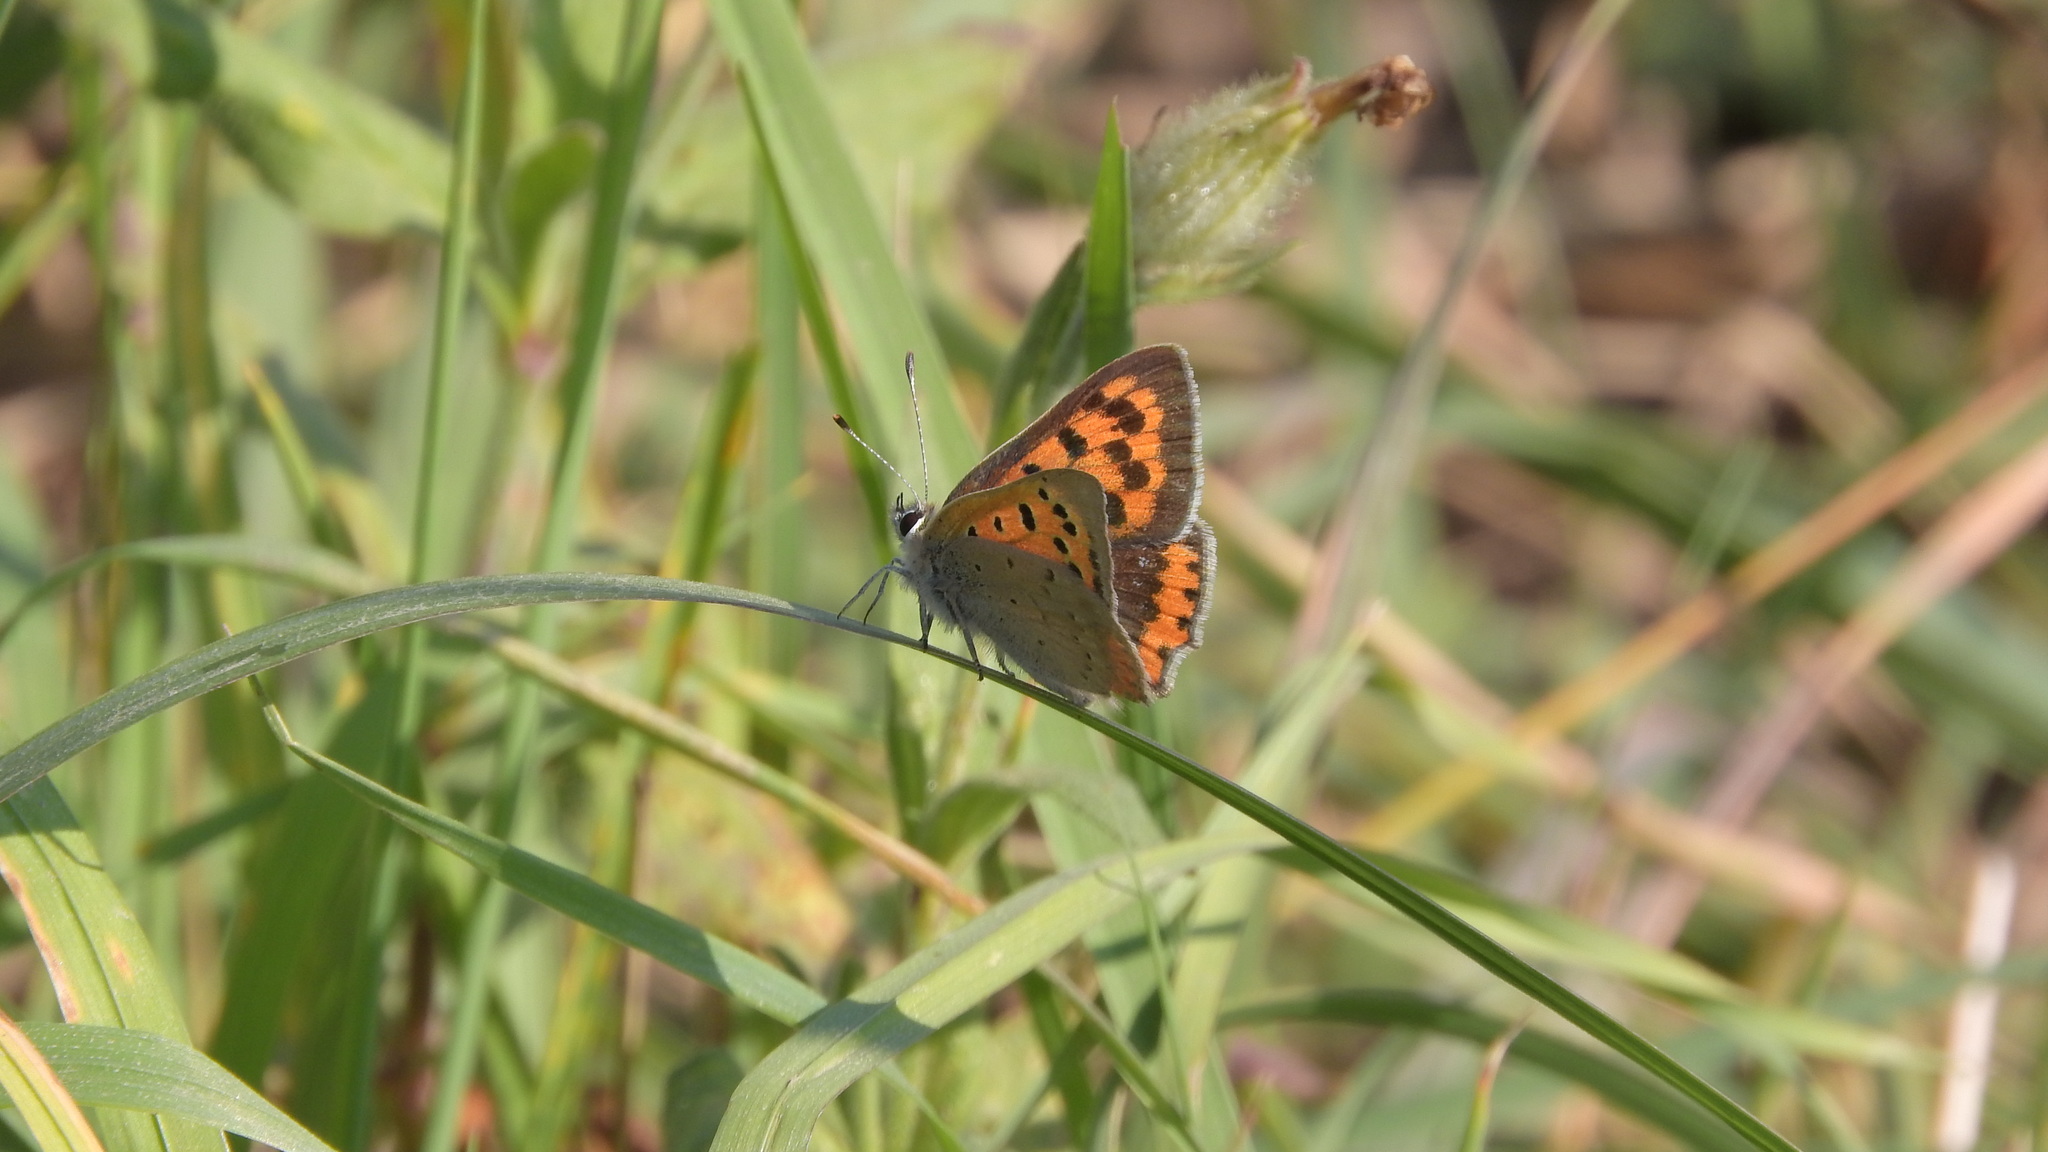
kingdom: Animalia
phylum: Arthropoda
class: Insecta
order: Lepidoptera
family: Lycaenidae
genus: Lycaena
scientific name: Lycaena phlaeas
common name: Small copper
